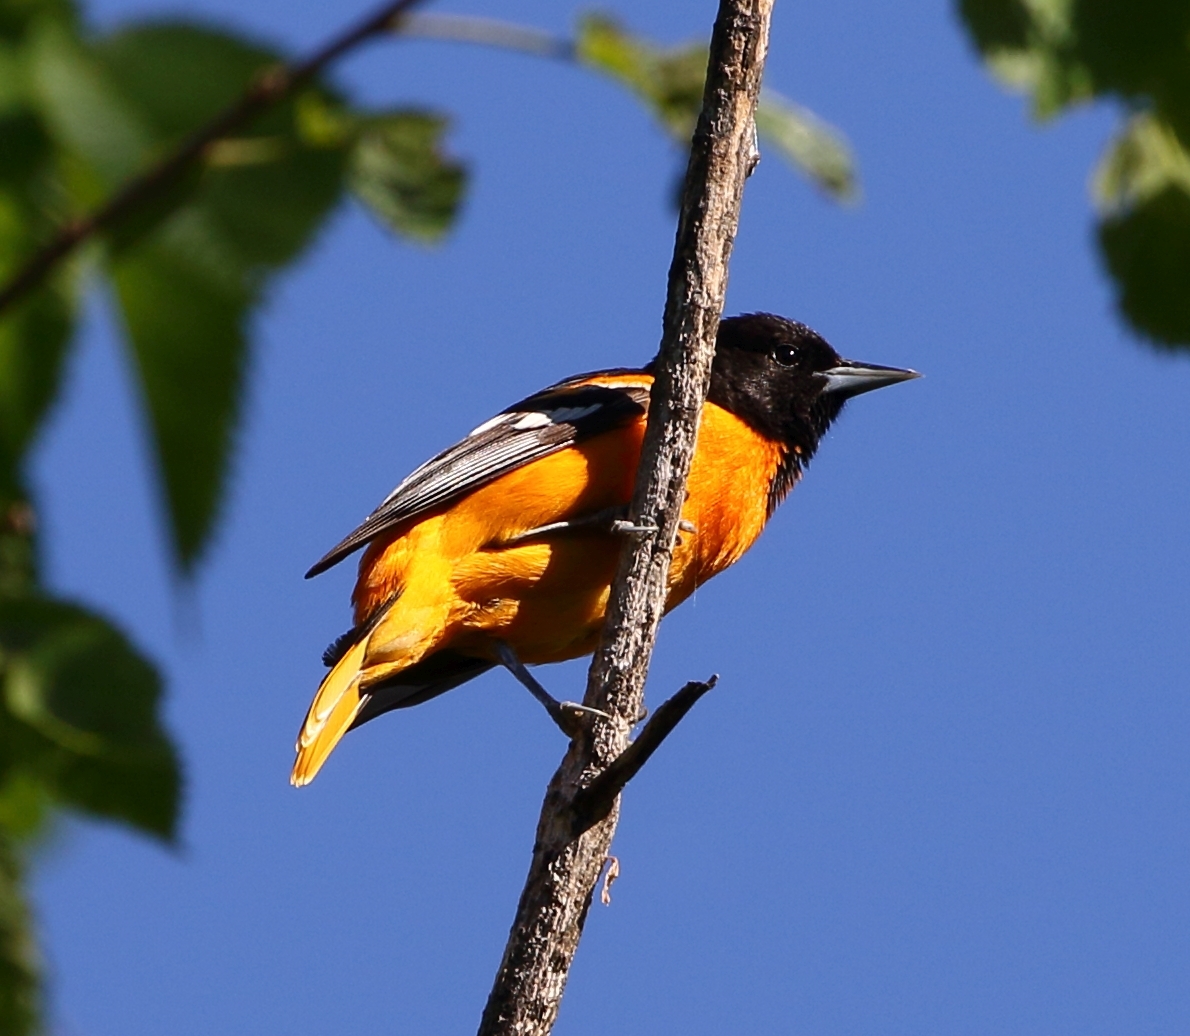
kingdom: Animalia
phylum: Chordata
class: Aves
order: Passeriformes
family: Icteridae
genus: Icterus
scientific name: Icterus galbula
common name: Baltimore oriole
